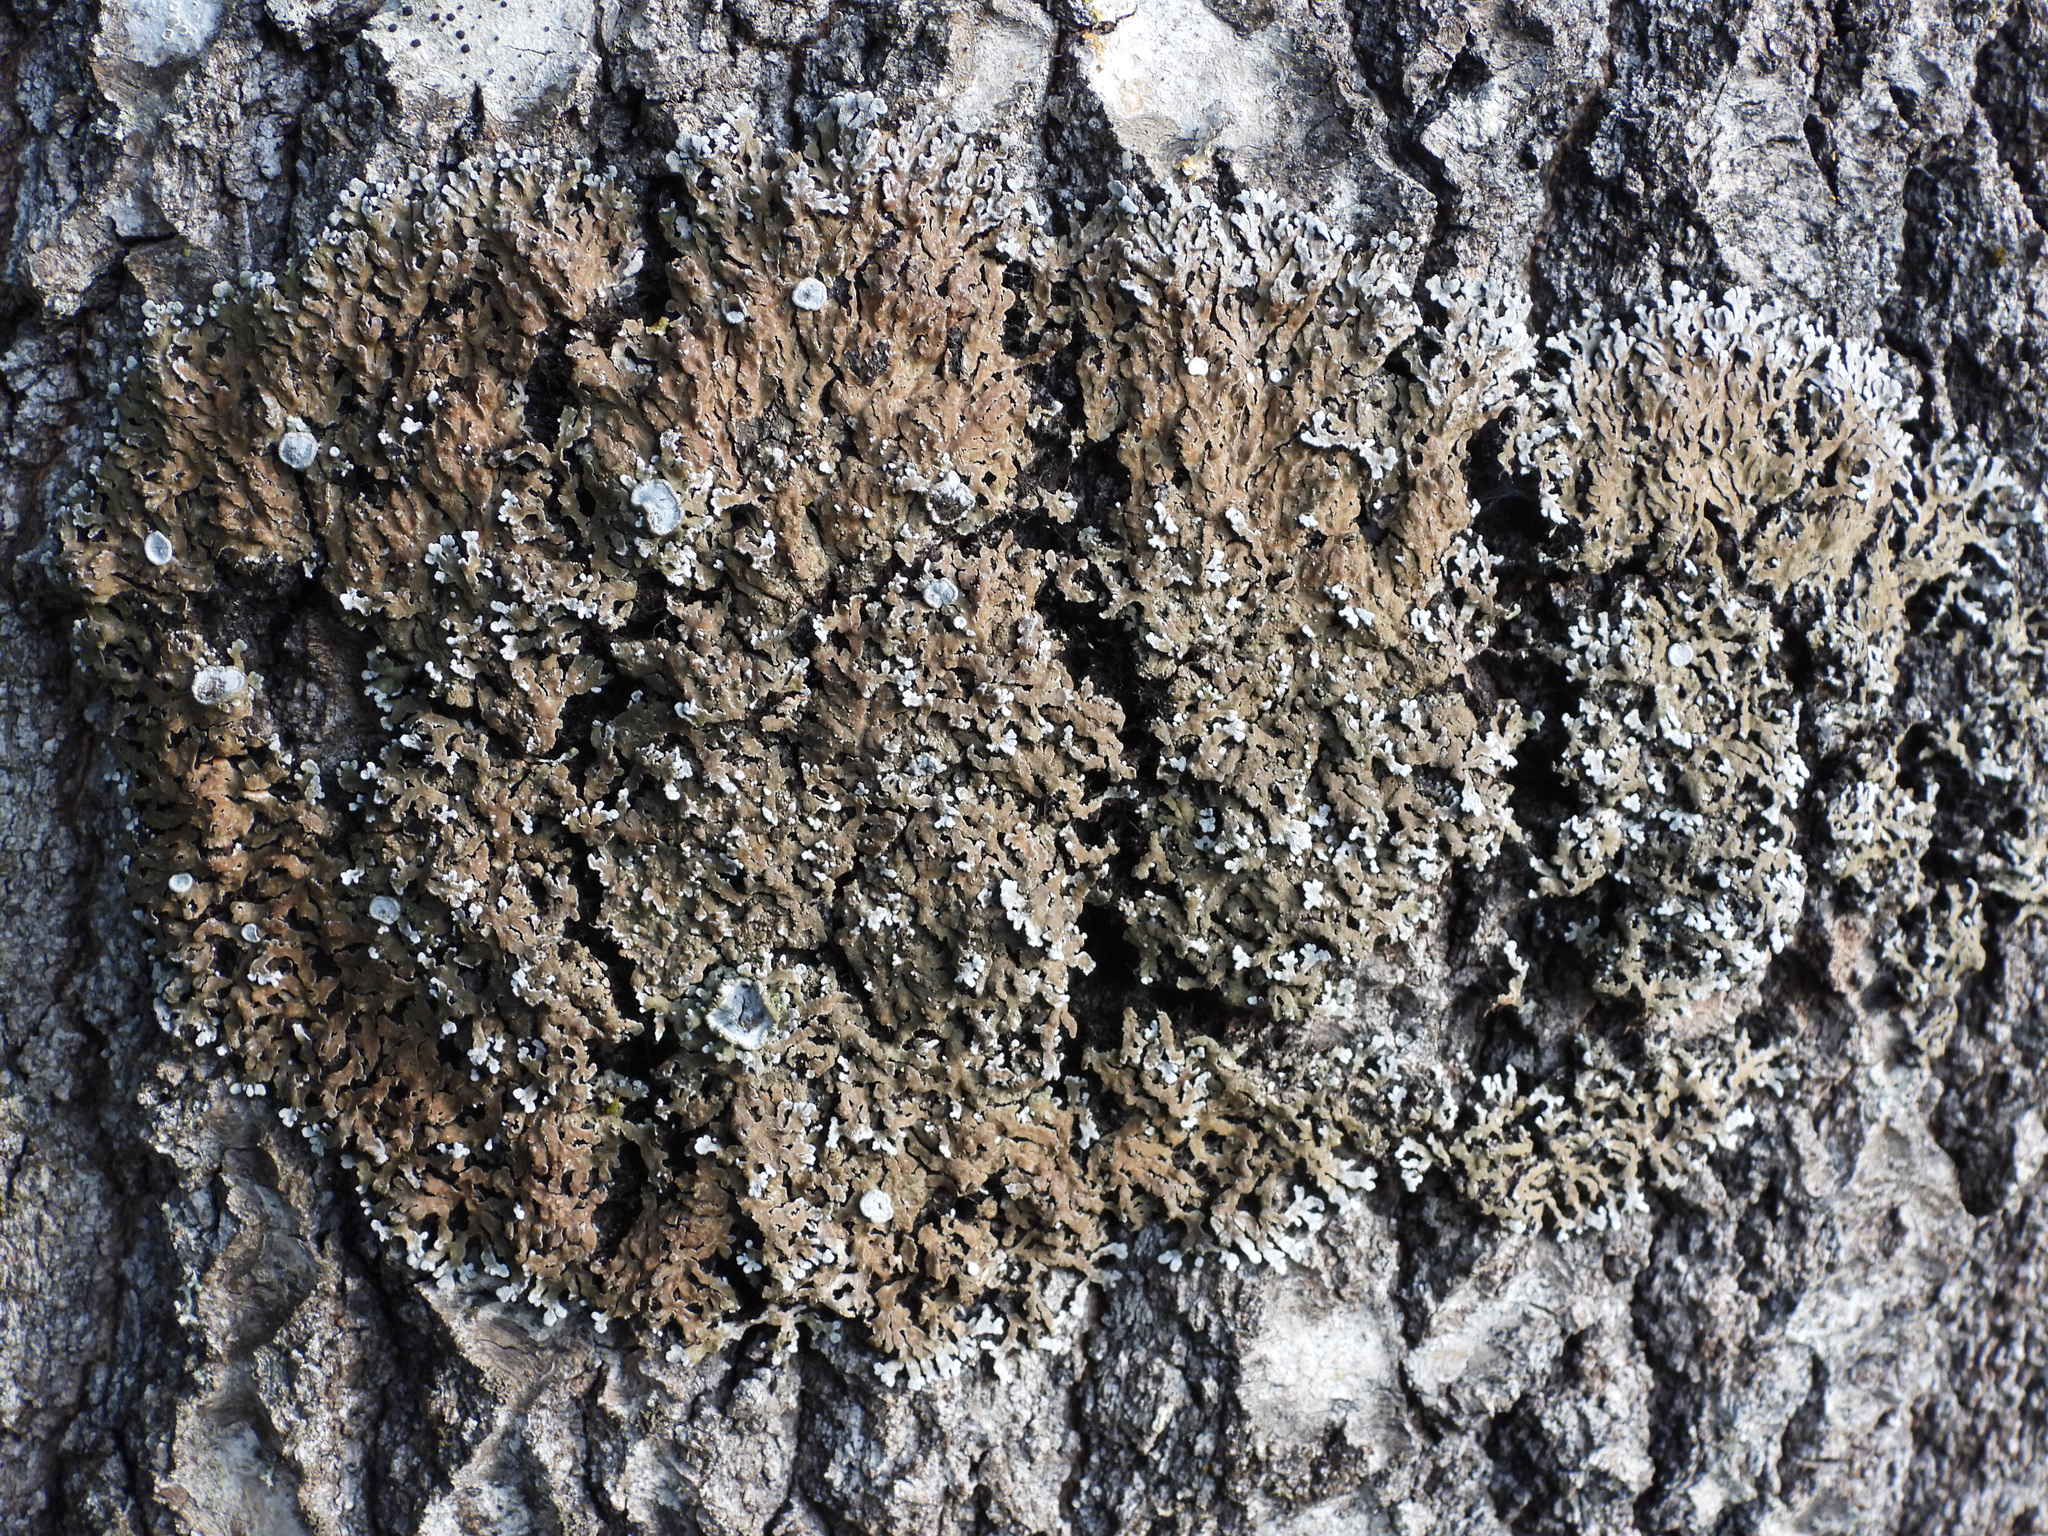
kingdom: Fungi
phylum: Ascomycota
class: Lecanoromycetes
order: Caliciales
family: Physciaceae
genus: Physconia
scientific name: Physconia distorta
